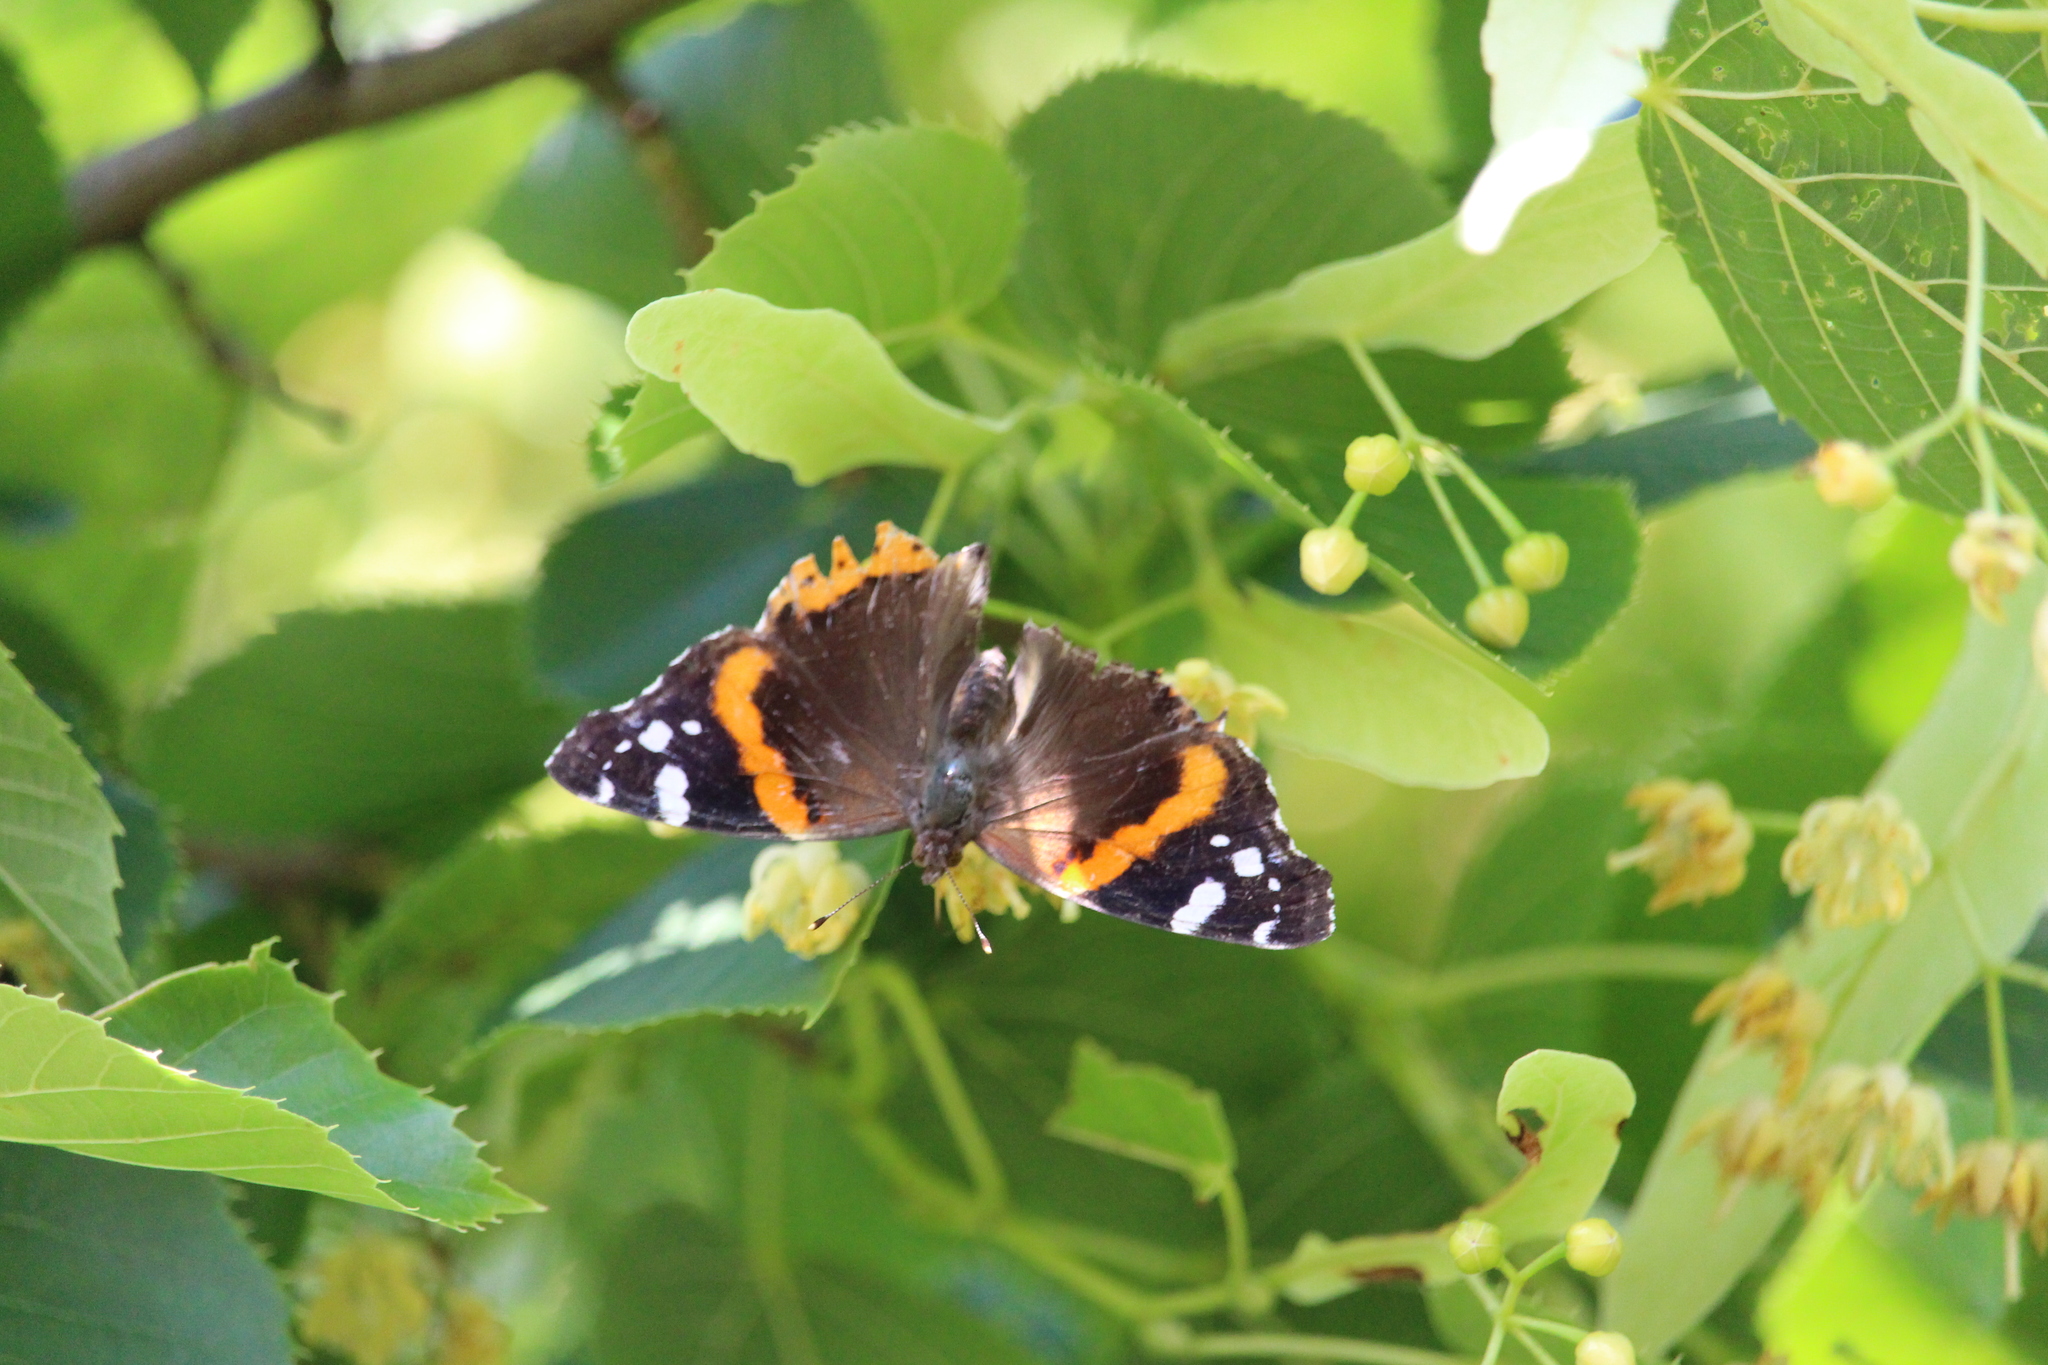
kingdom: Animalia
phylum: Arthropoda
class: Insecta
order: Lepidoptera
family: Nymphalidae
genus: Vanessa
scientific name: Vanessa atalanta
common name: Red admiral
